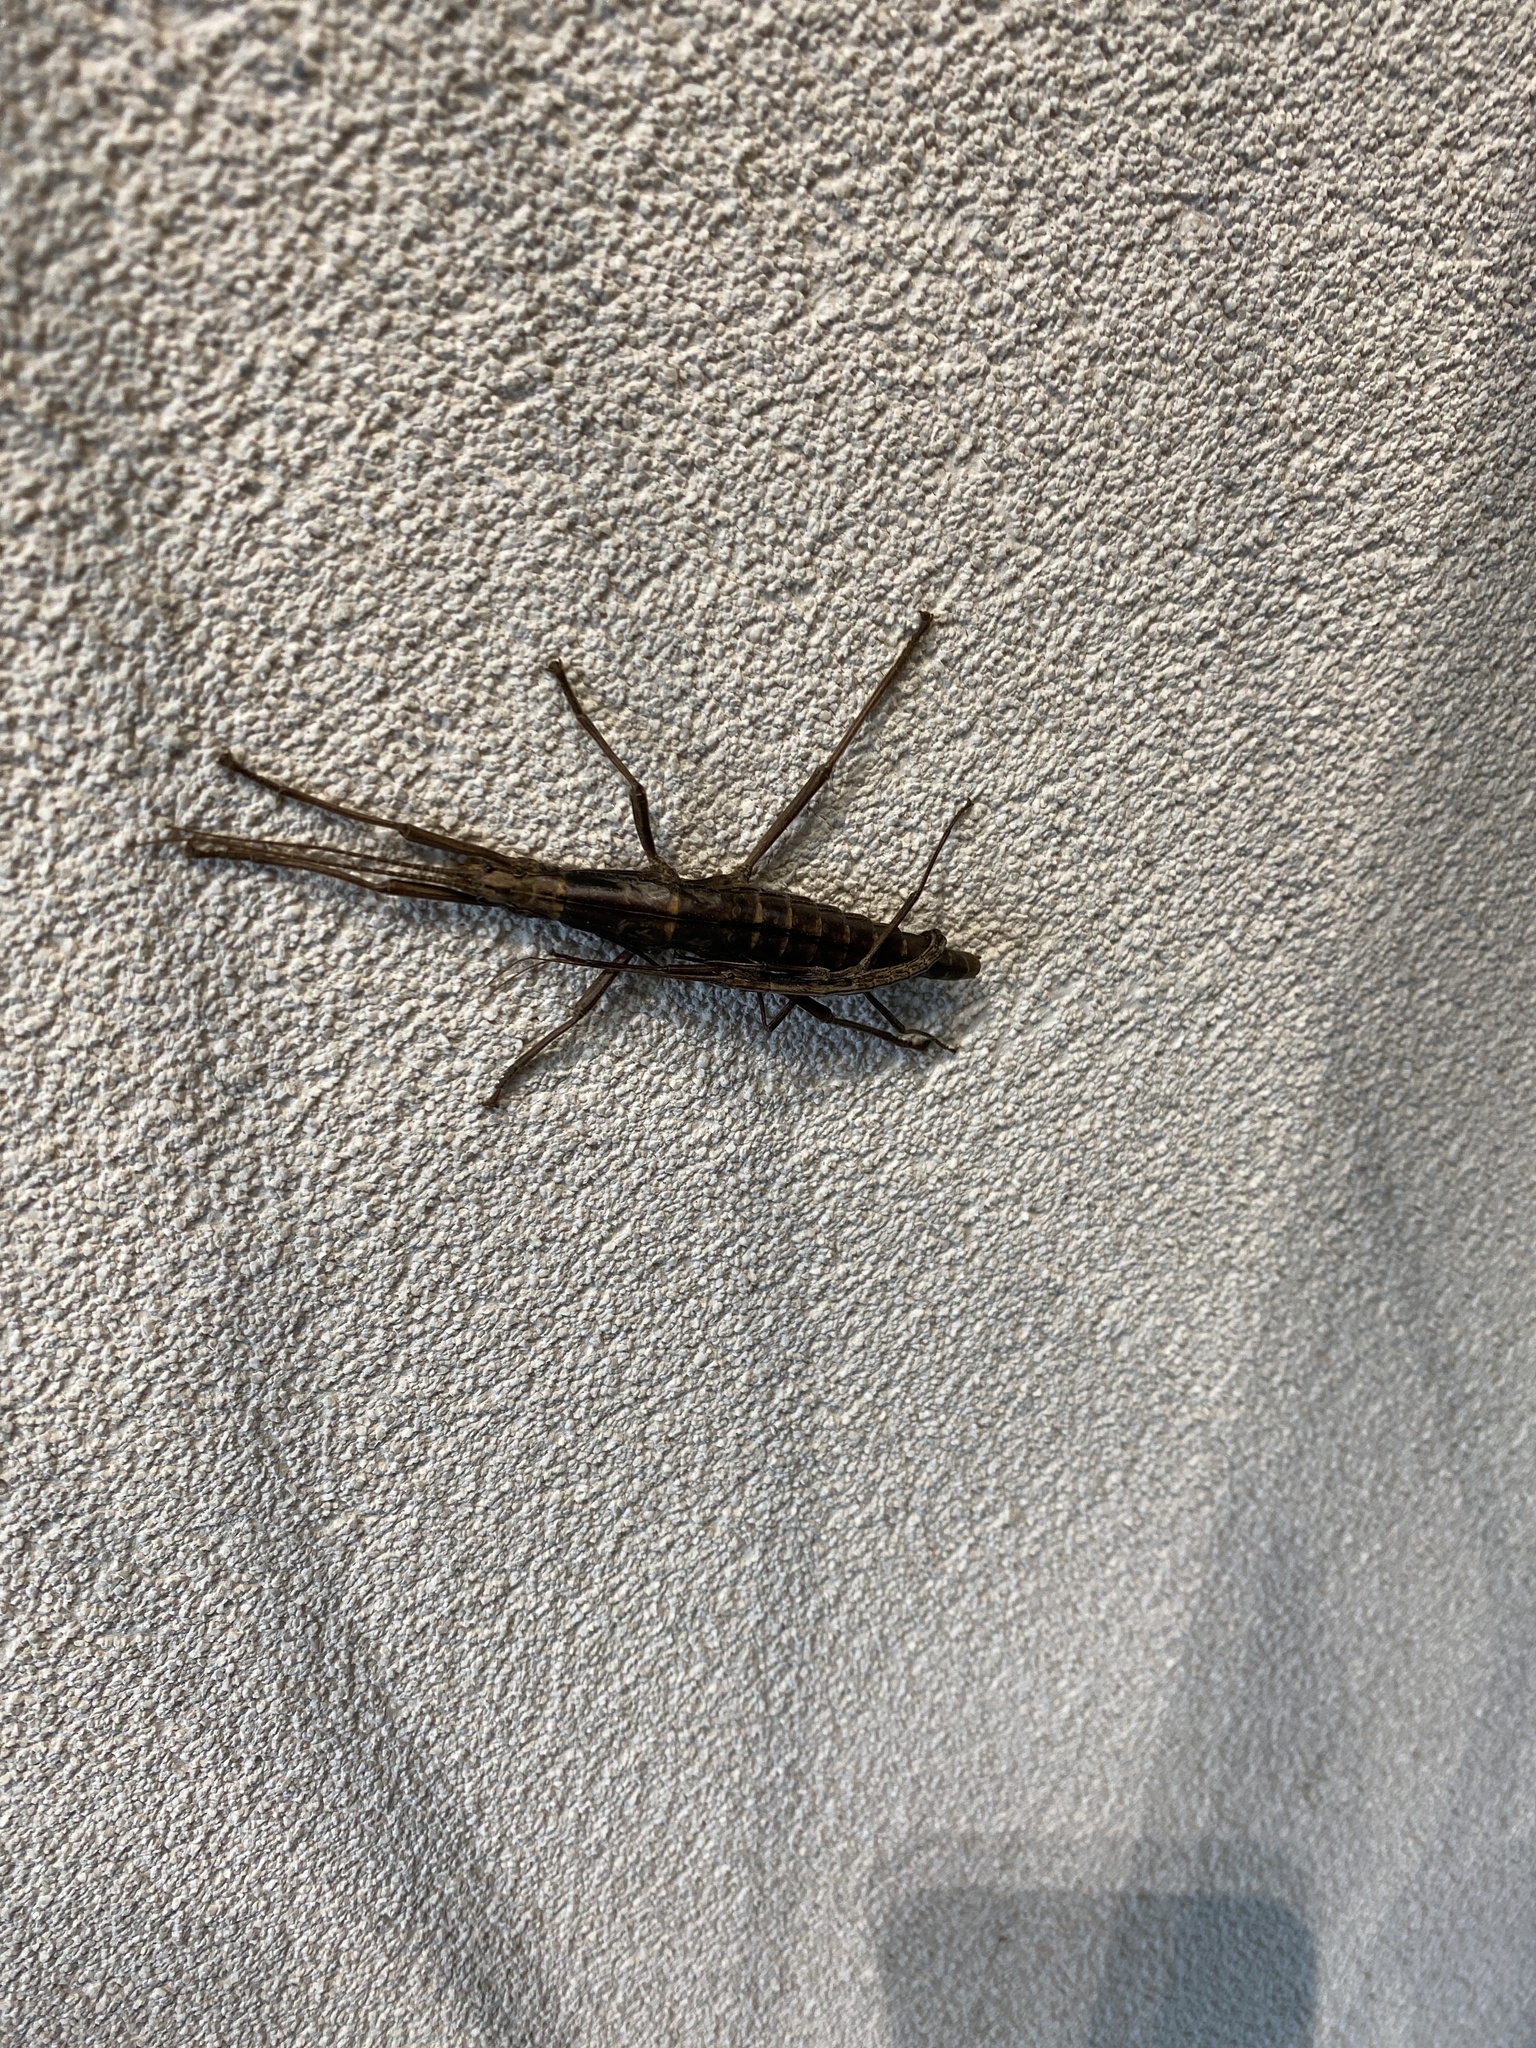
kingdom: Animalia
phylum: Arthropoda
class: Insecta
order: Phasmida
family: Pseudophasmatidae
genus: Anisomorpha
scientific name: Anisomorpha buprestoides
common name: Florida stick insect
